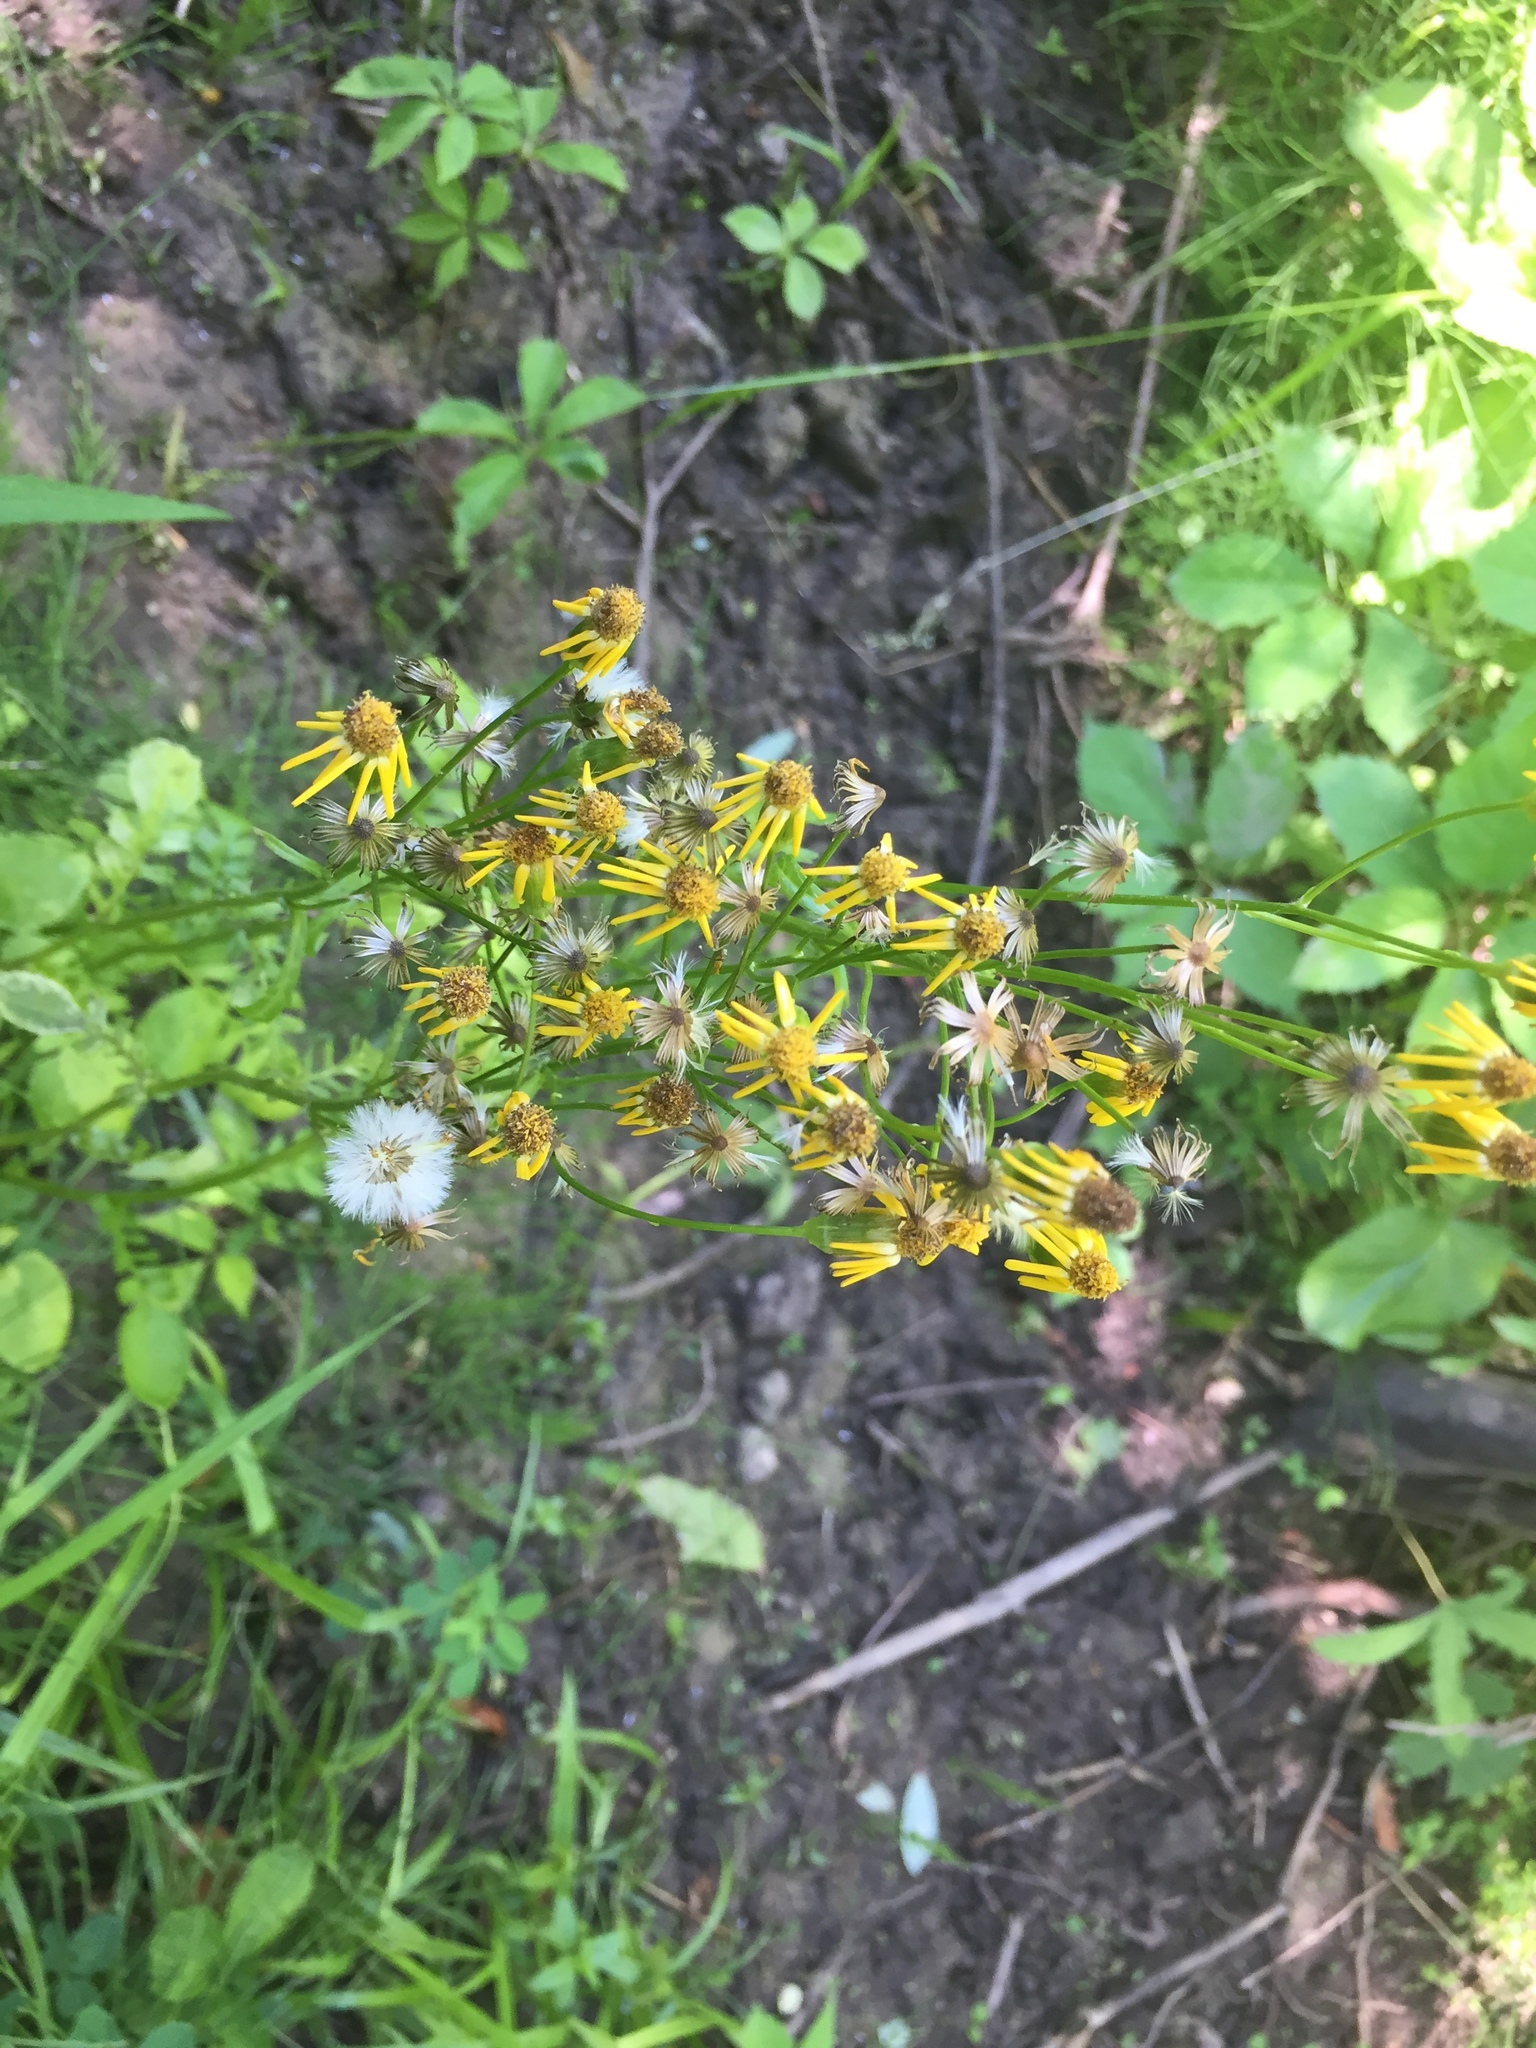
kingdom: Plantae
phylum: Tracheophyta
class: Magnoliopsida
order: Asterales
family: Asteraceae
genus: Packera
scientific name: Packera aurea
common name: Golden groundsel
